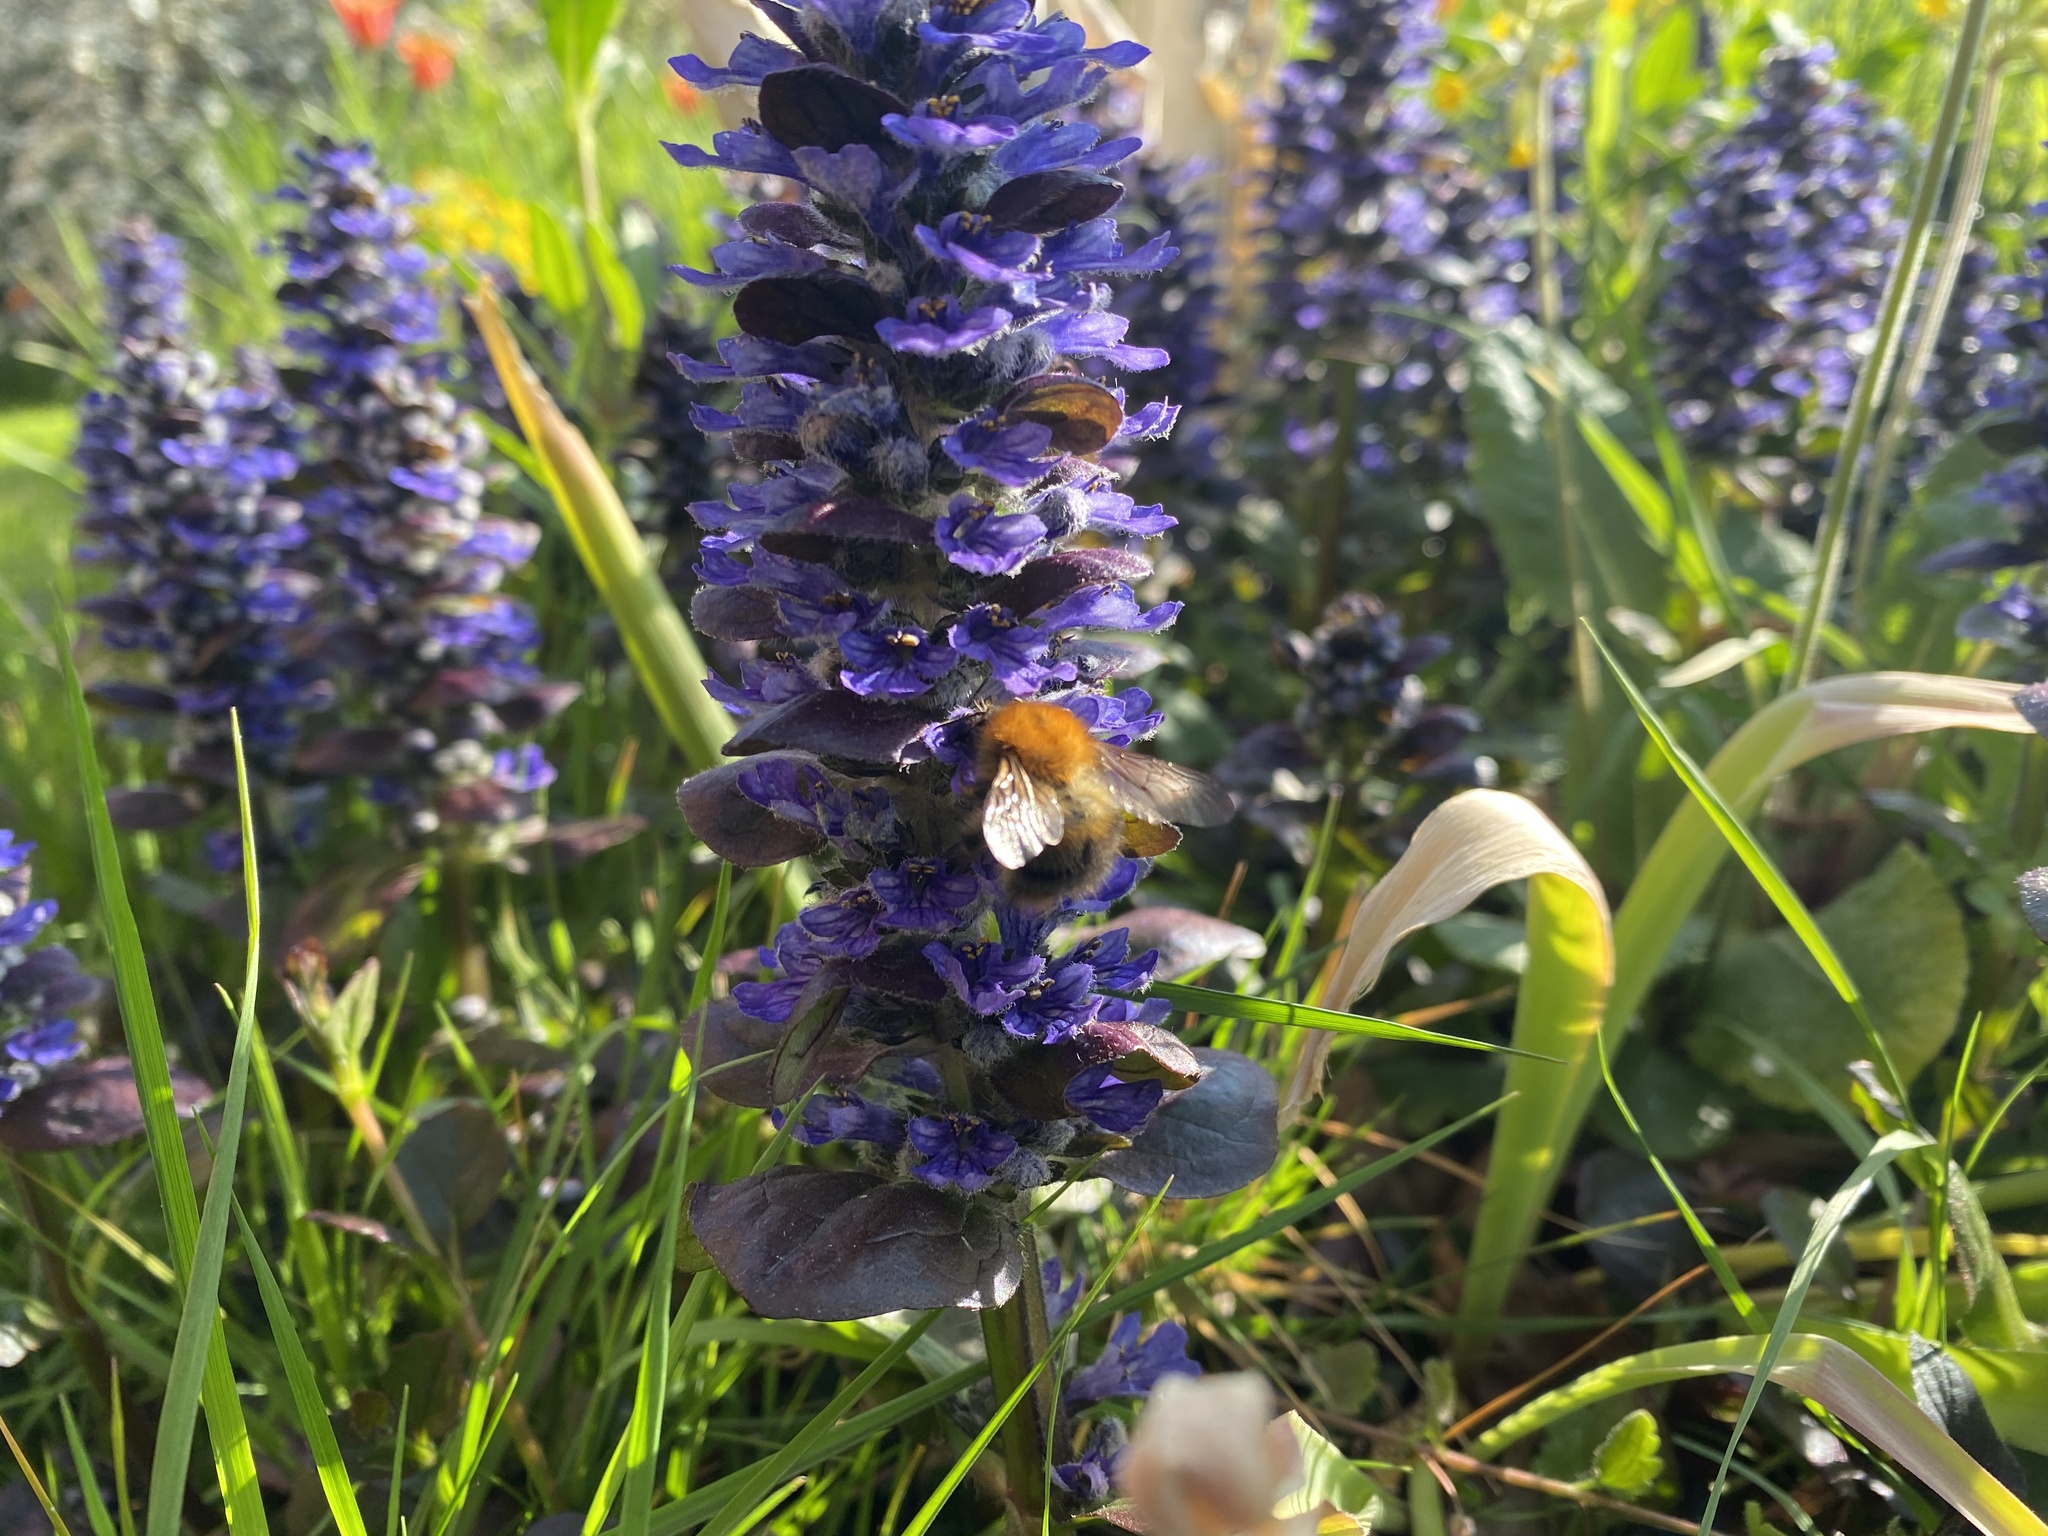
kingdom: Animalia
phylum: Arthropoda
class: Insecta
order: Hymenoptera
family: Apidae
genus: Bombus
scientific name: Bombus pascuorum
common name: Common carder bee
